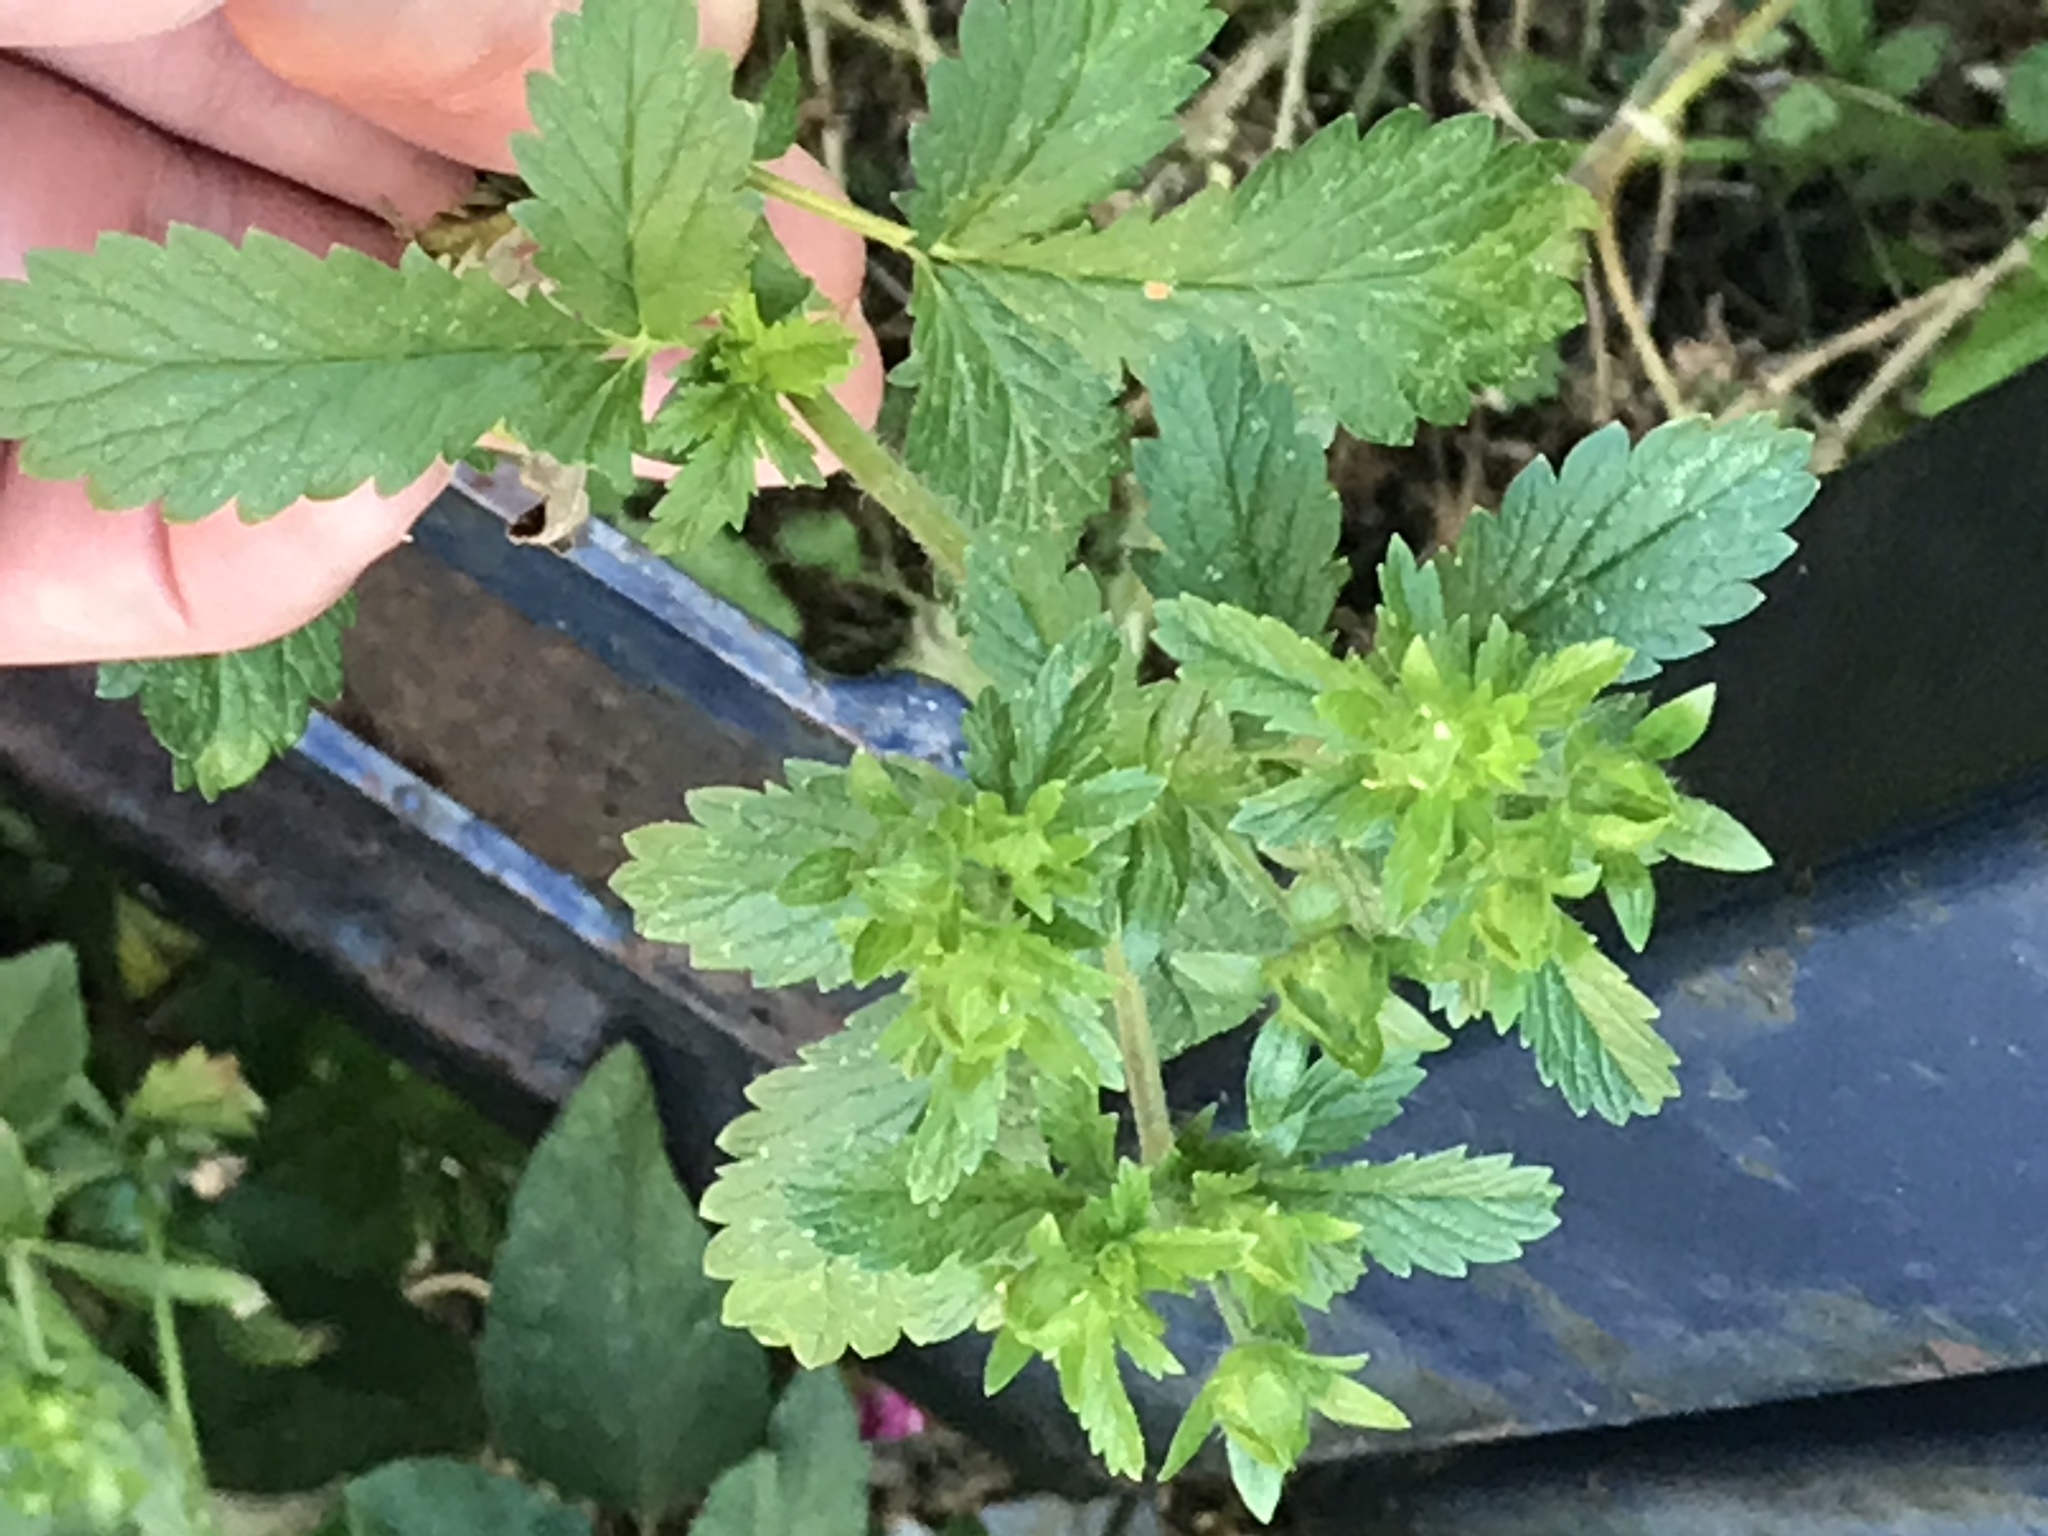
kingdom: Plantae
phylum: Tracheophyta
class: Magnoliopsida
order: Rosales
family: Rosaceae
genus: Potentilla
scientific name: Potentilla norvegica
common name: Ternate-leaved cinquefoil
